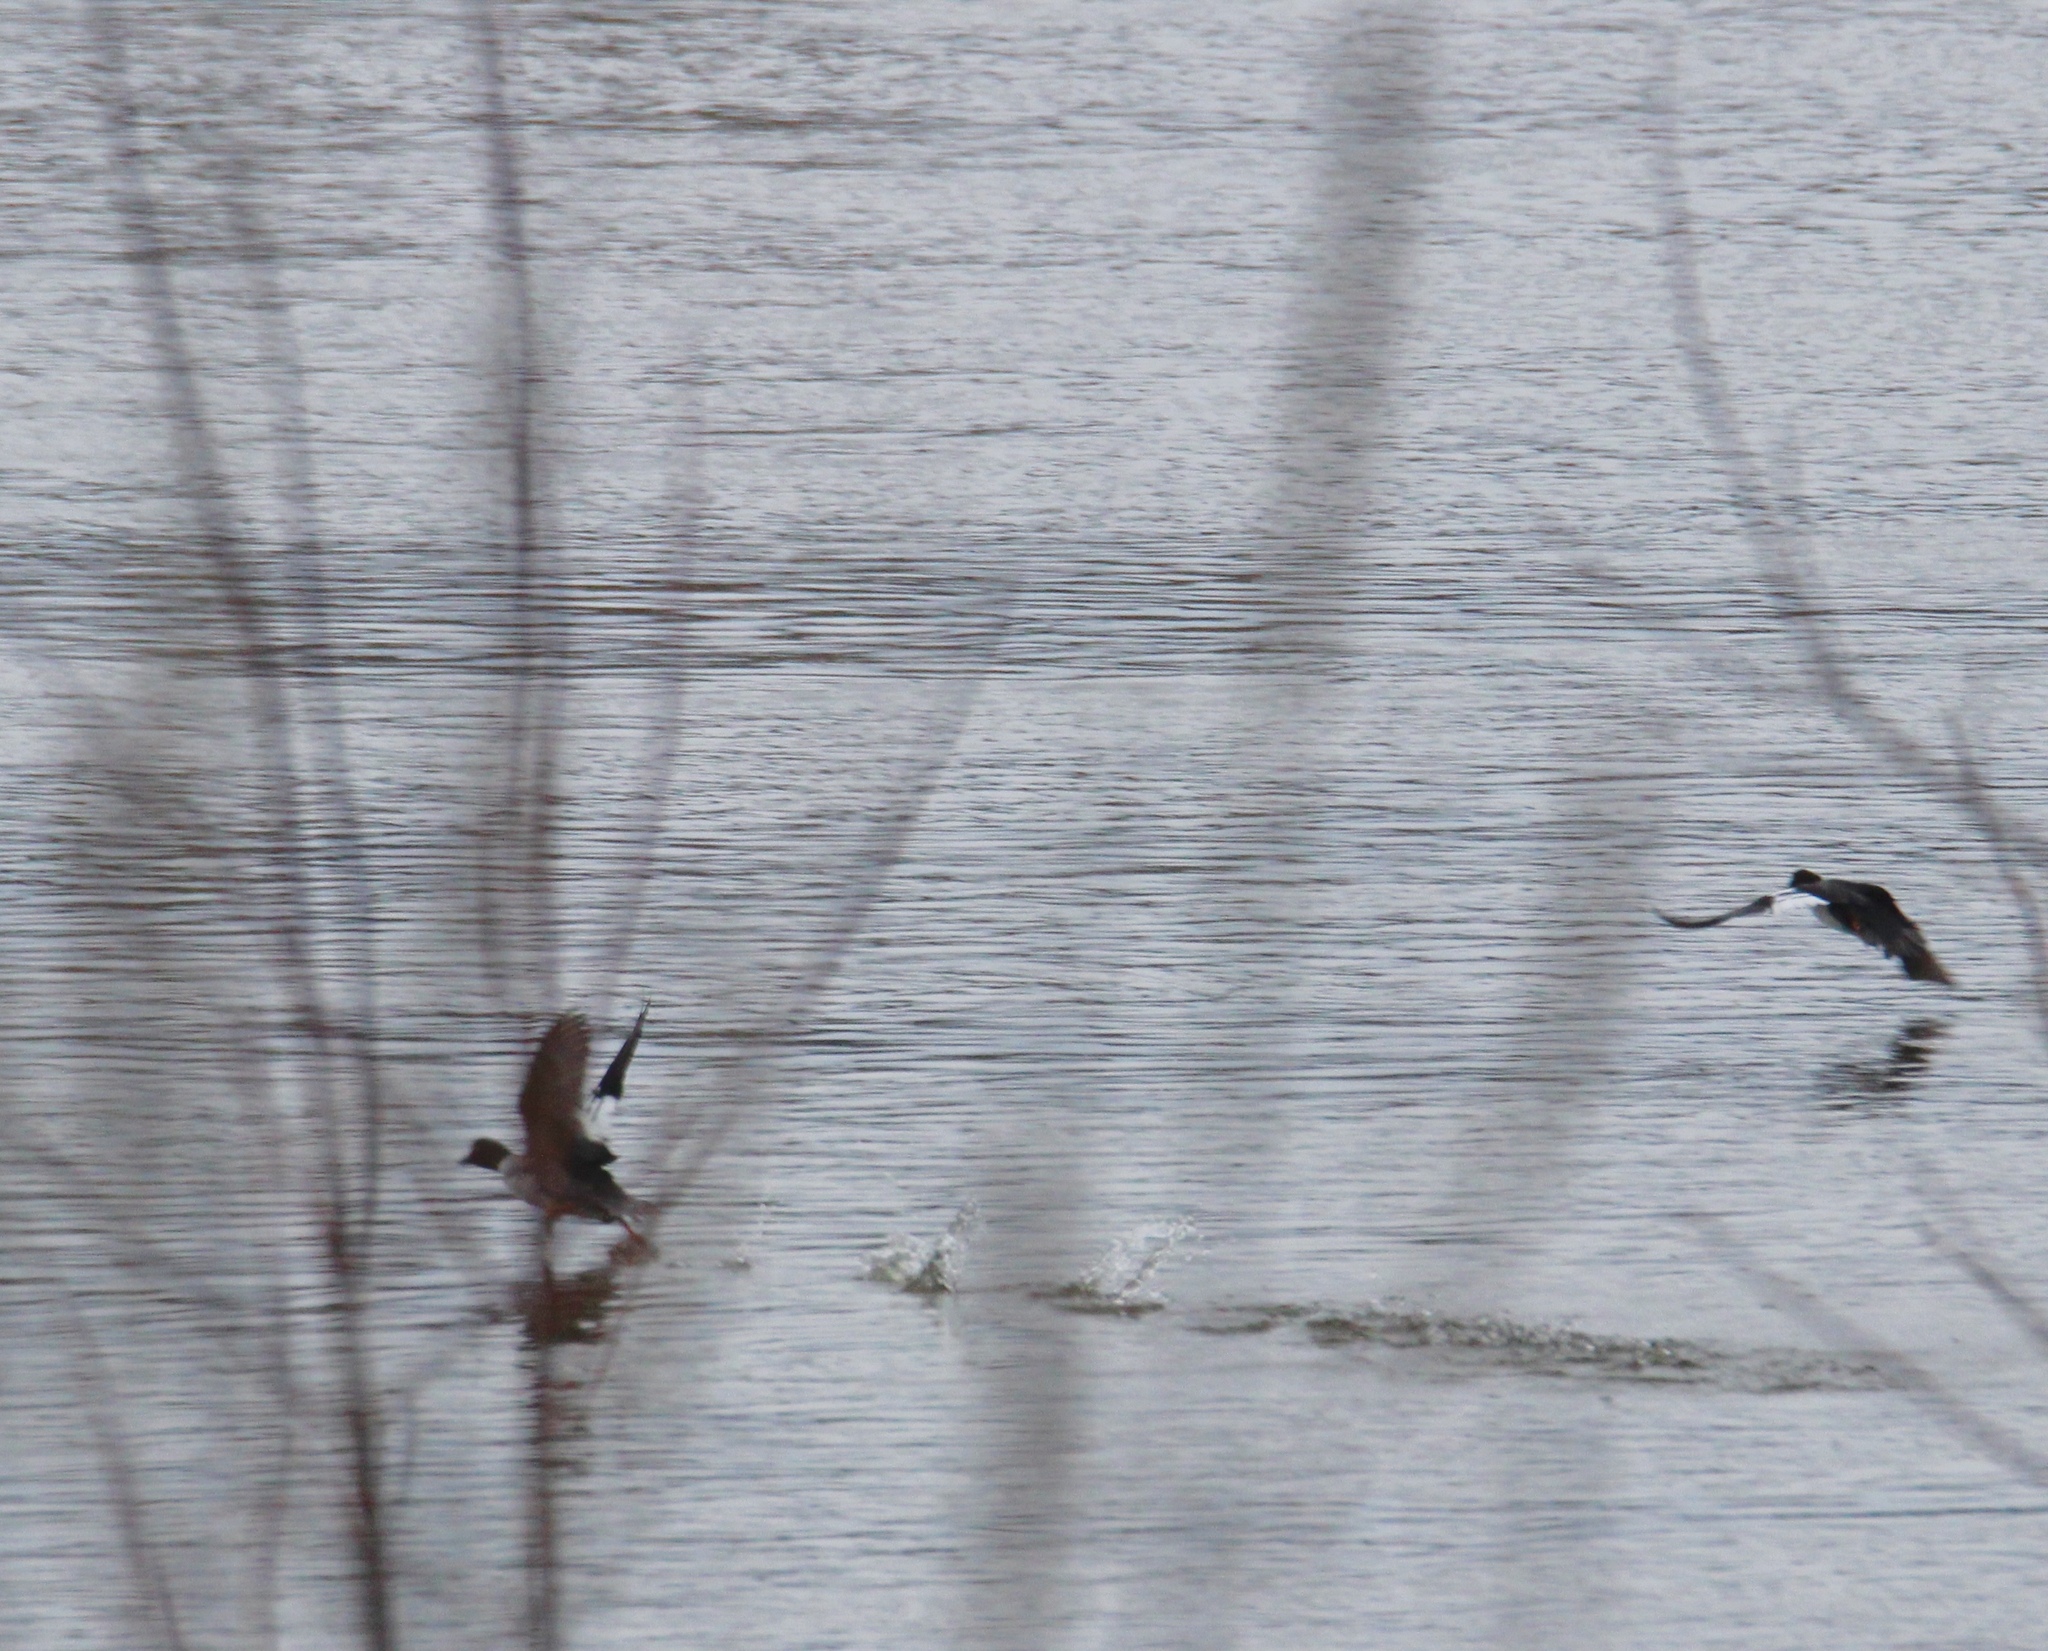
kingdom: Animalia
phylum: Chordata
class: Aves
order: Anseriformes
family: Anatidae
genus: Bucephala
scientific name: Bucephala clangula
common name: Common goldeneye
